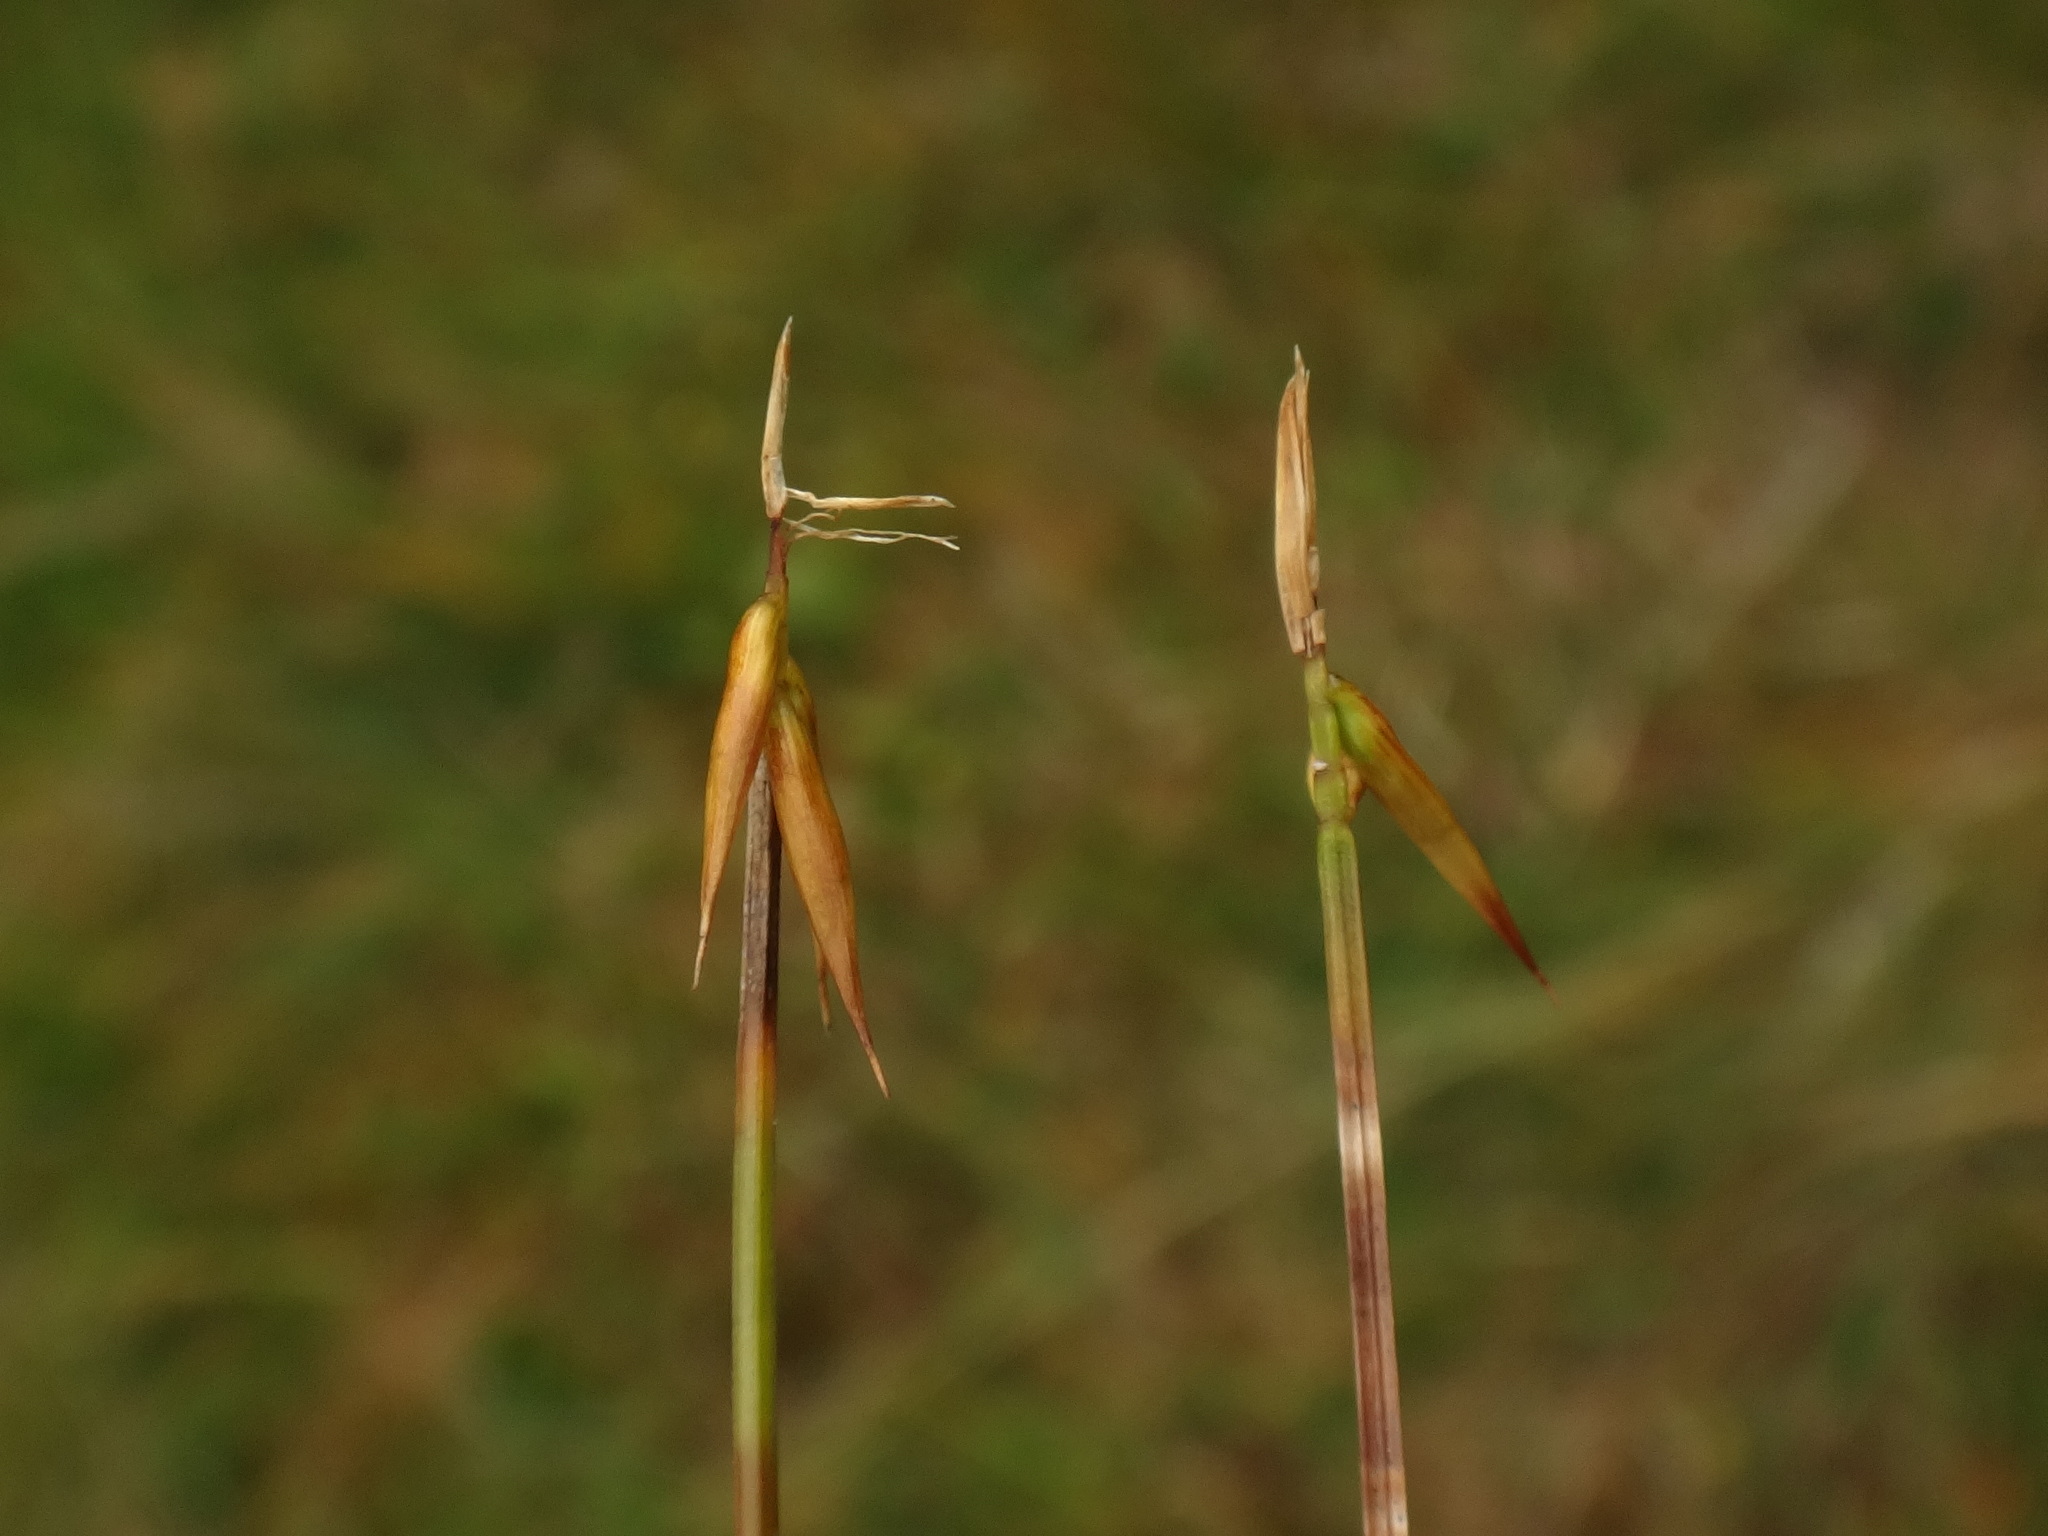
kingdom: Plantae
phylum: Tracheophyta
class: Liliopsida
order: Poales
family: Cyperaceae
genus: Carex
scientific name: Carex pauciflora
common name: Few-flowered sedge
